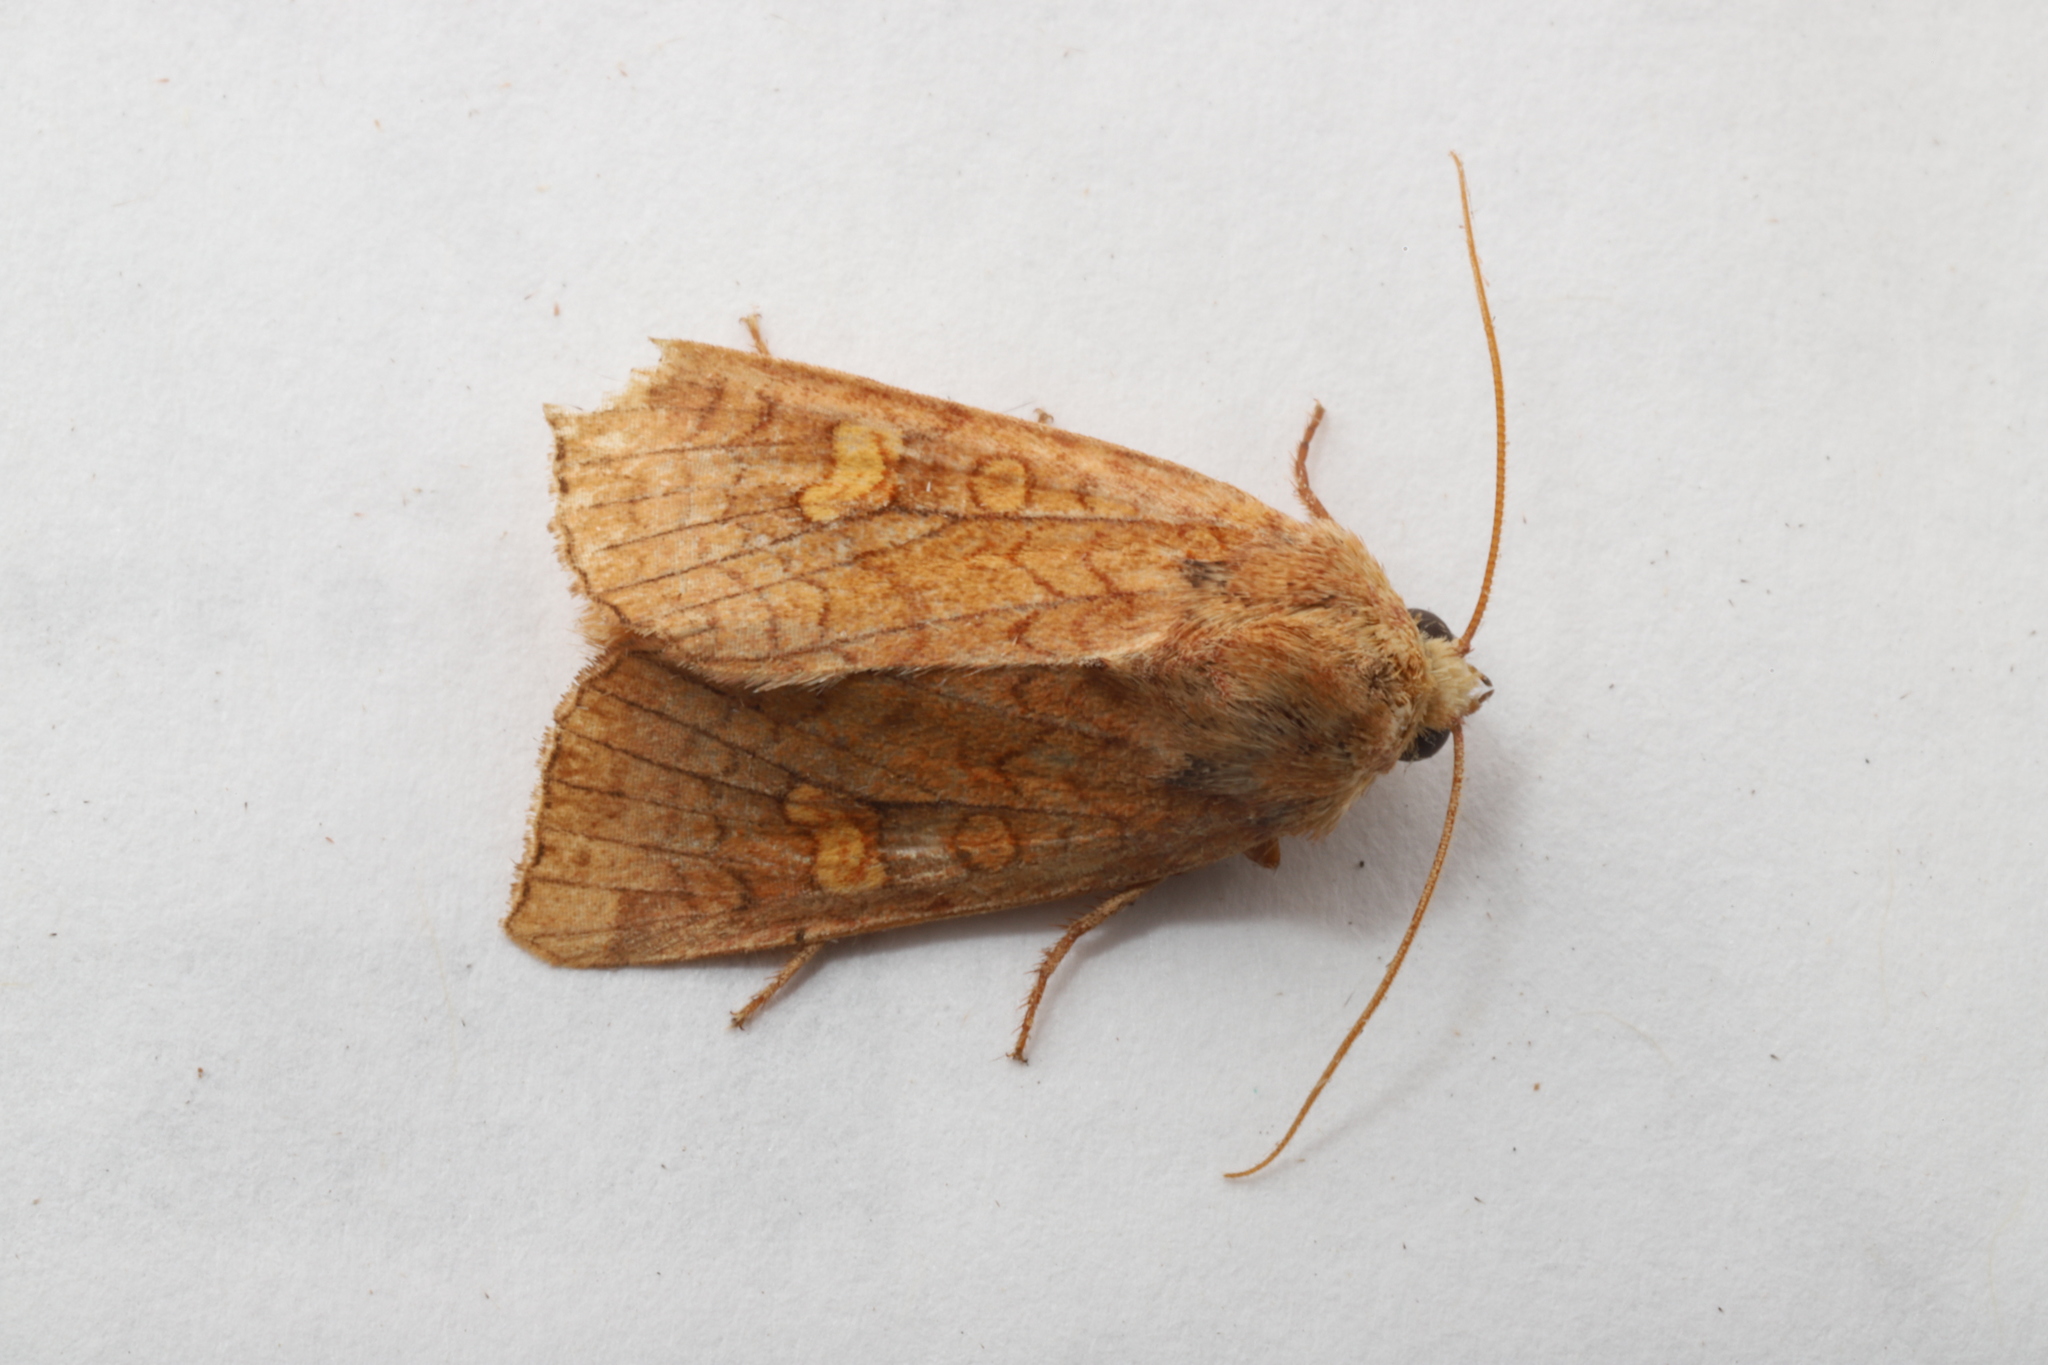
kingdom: Animalia
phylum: Arthropoda
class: Insecta
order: Lepidoptera
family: Noctuidae
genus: Amphipoea
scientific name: Amphipoea americana
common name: American ear moth
